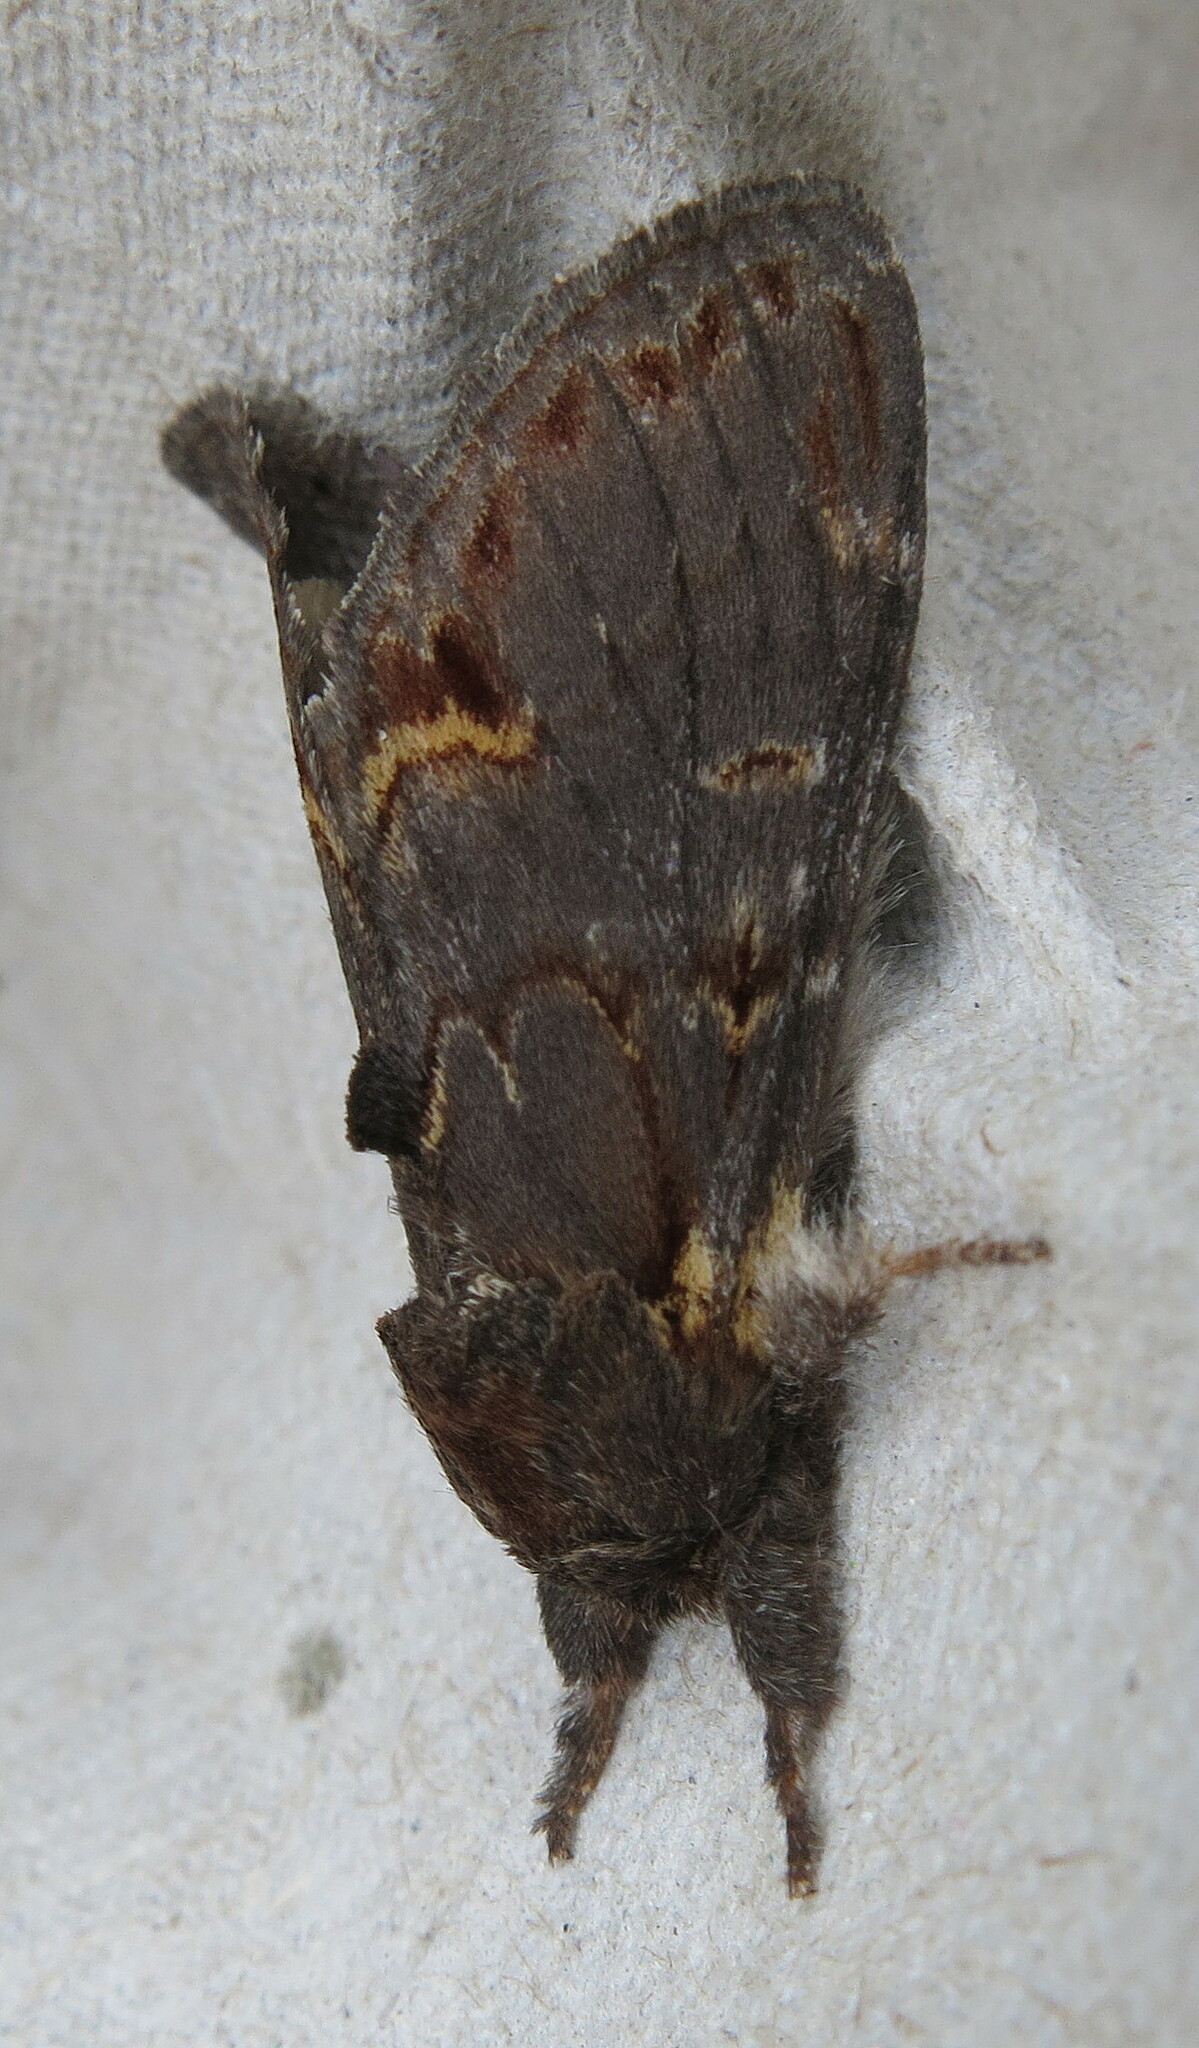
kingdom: Animalia
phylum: Arthropoda
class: Insecta
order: Lepidoptera
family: Notodontidae
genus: Notodonta
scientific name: Notodonta dromedarius
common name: Iron prominent
